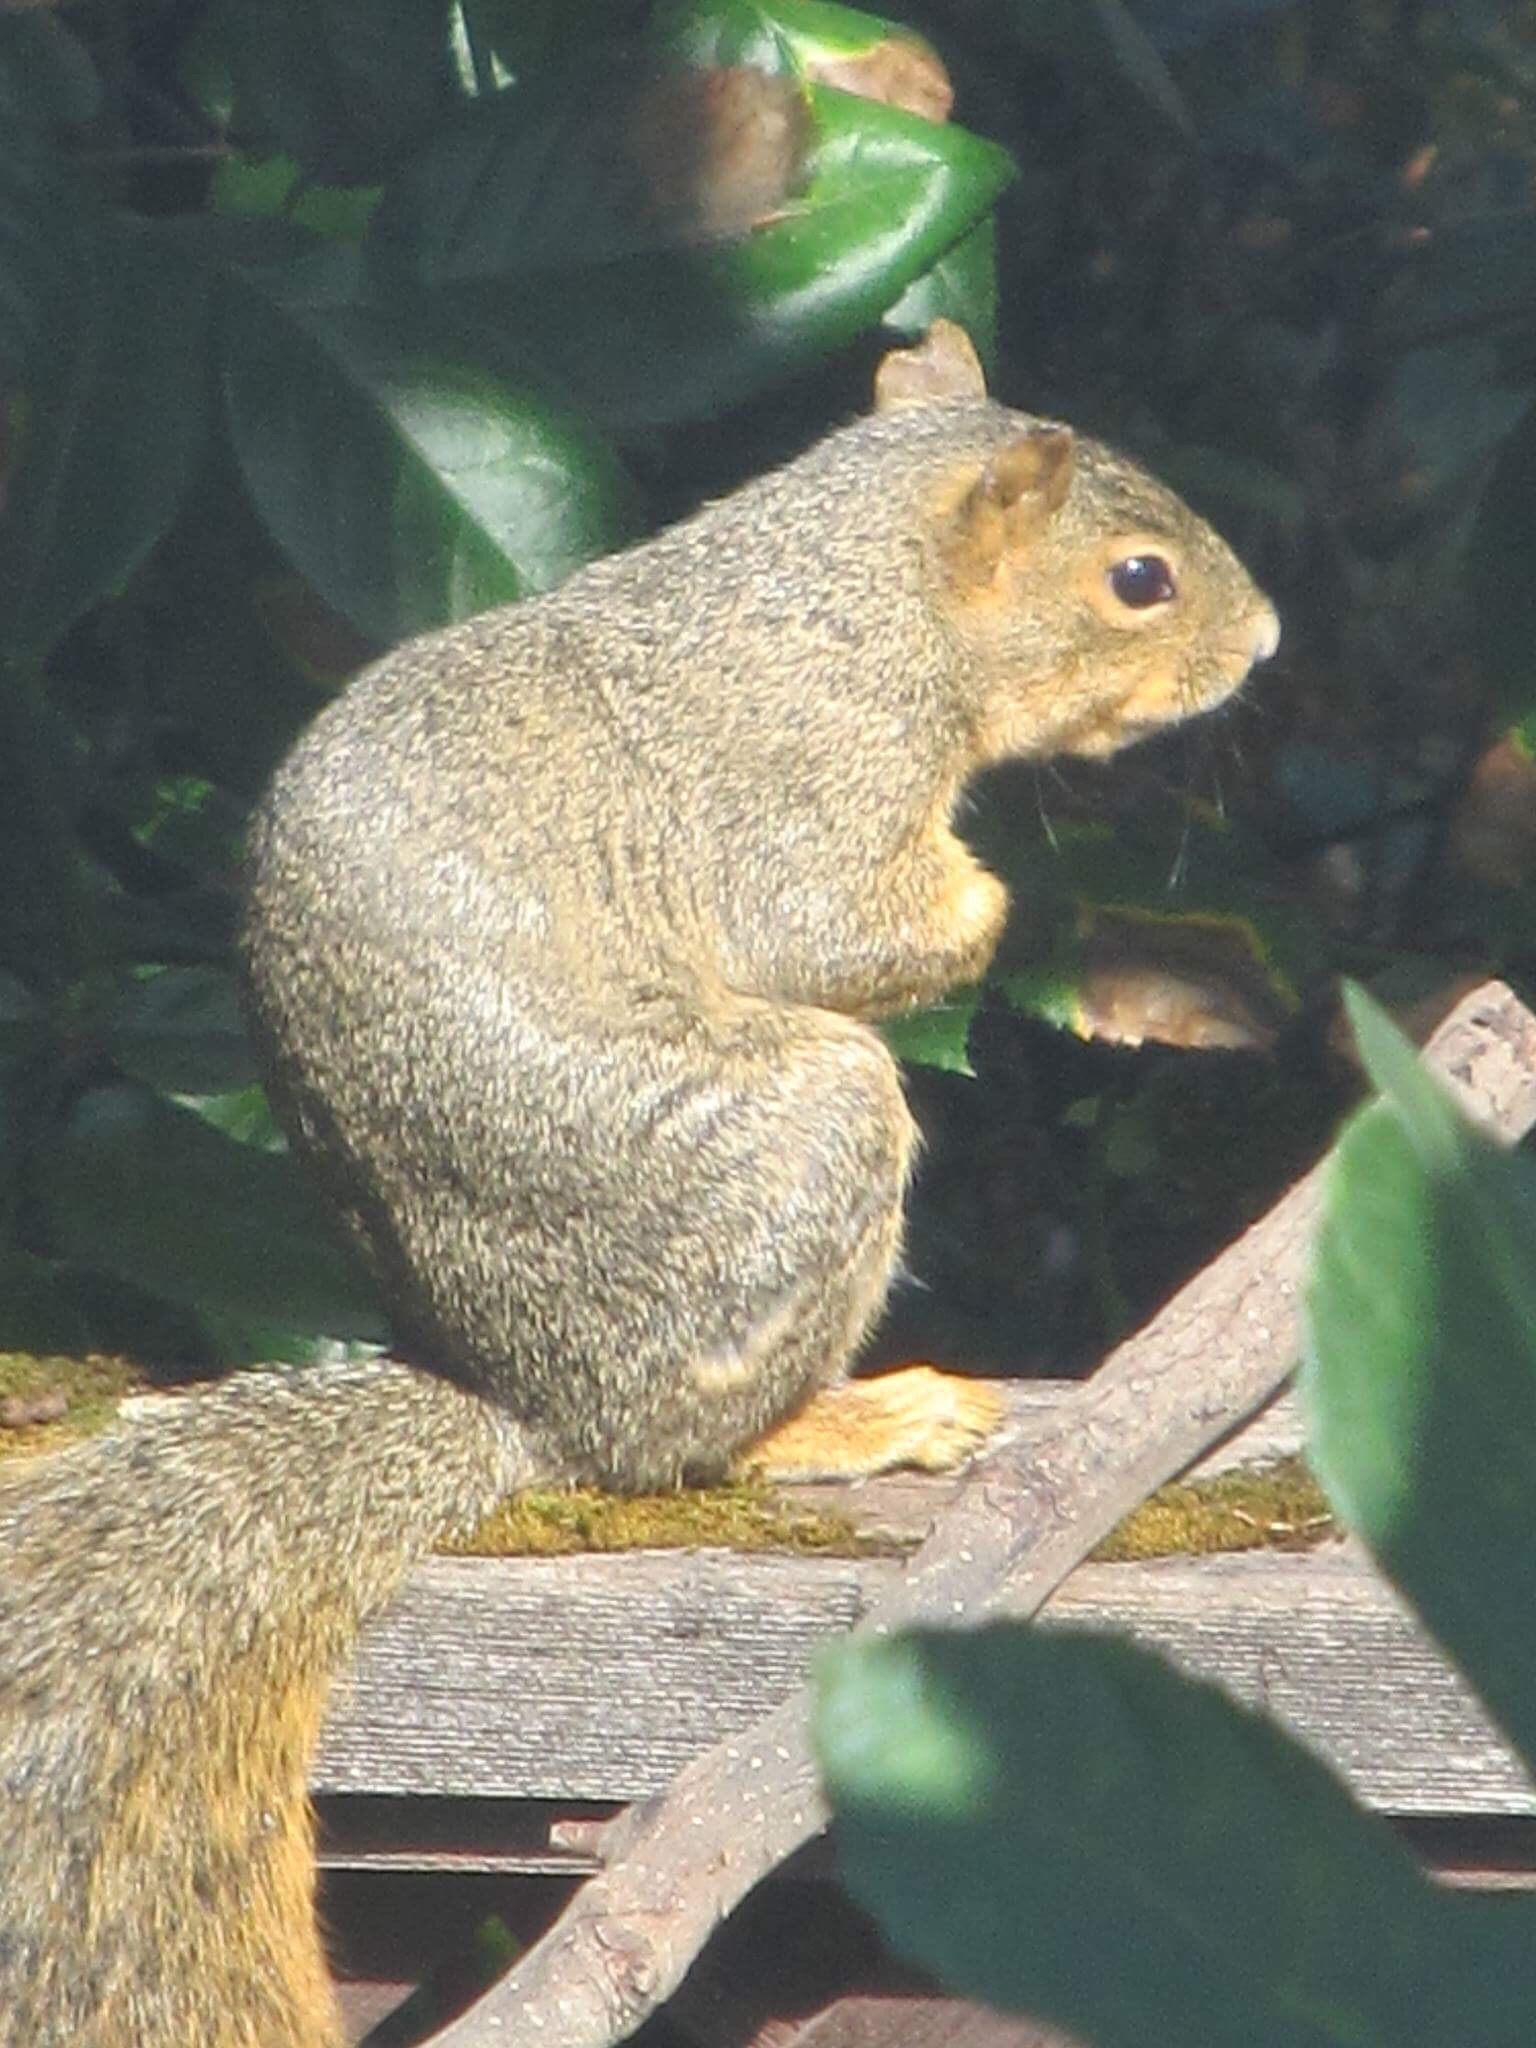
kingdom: Animalia
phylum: Chordata
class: Mammalia
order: Rodentia
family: Sciuridae
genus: Sciurus
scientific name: Sciurus niger
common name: Fox squirrel
